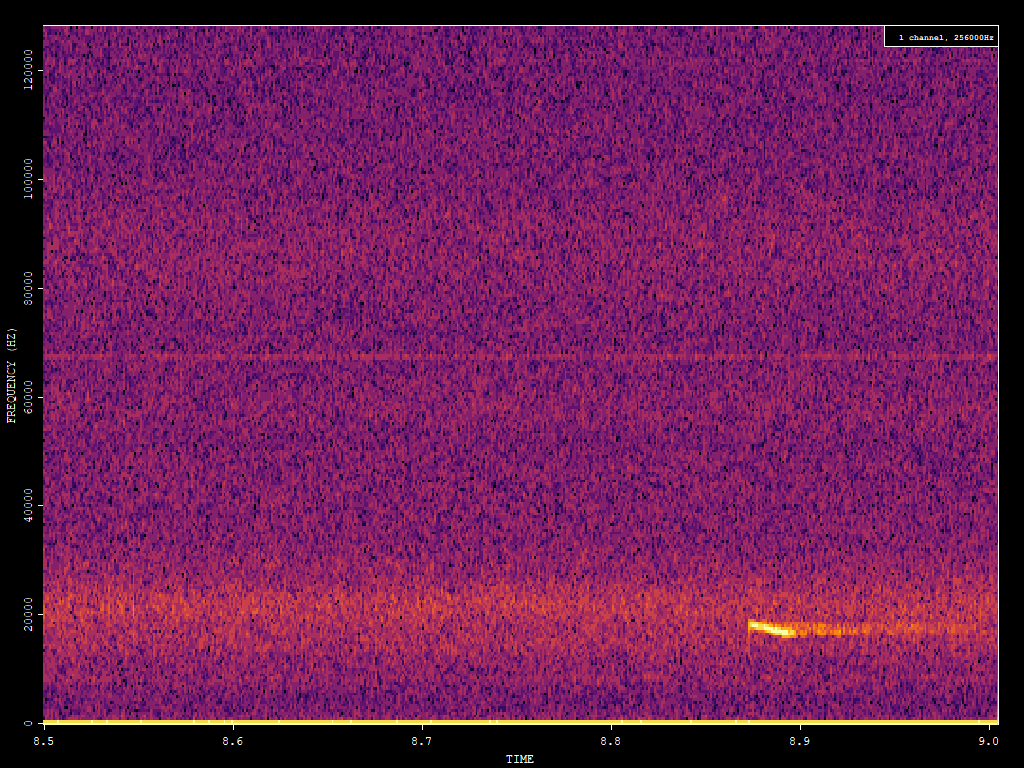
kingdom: Animalia
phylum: Chordata
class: Mammalia
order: Chiroptera
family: Vespertilionidae
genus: Nyctalus
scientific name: Nyctalus noctula
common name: Noctule
